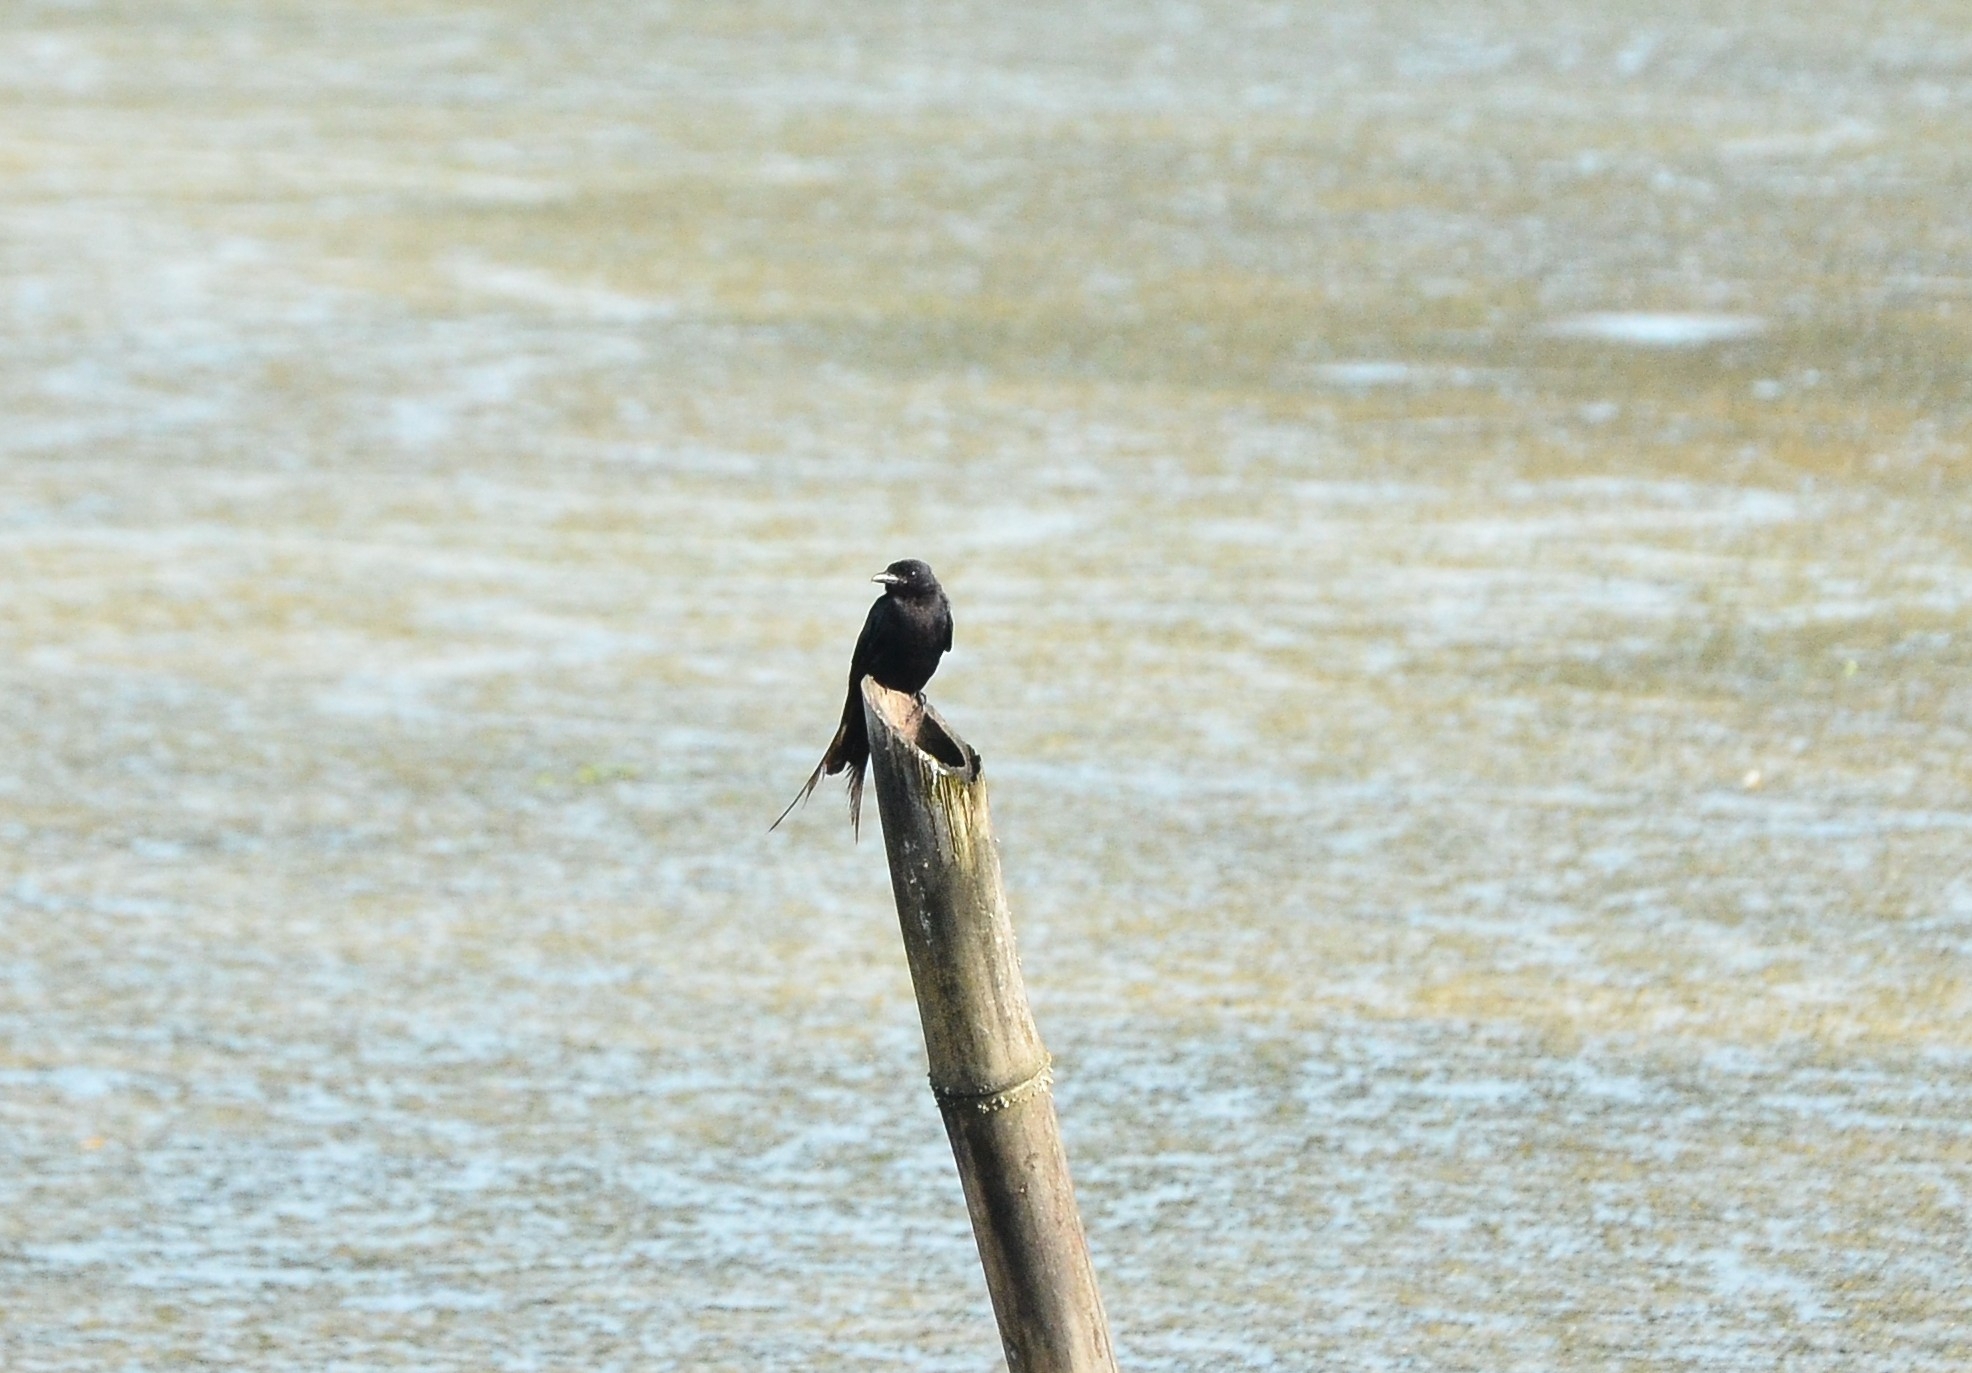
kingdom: Animalia
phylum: Chordata
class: Aves
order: Passeriformes
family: Dicruridae
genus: Dicrurus
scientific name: Dicrurus macrocercus
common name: Black drongo
